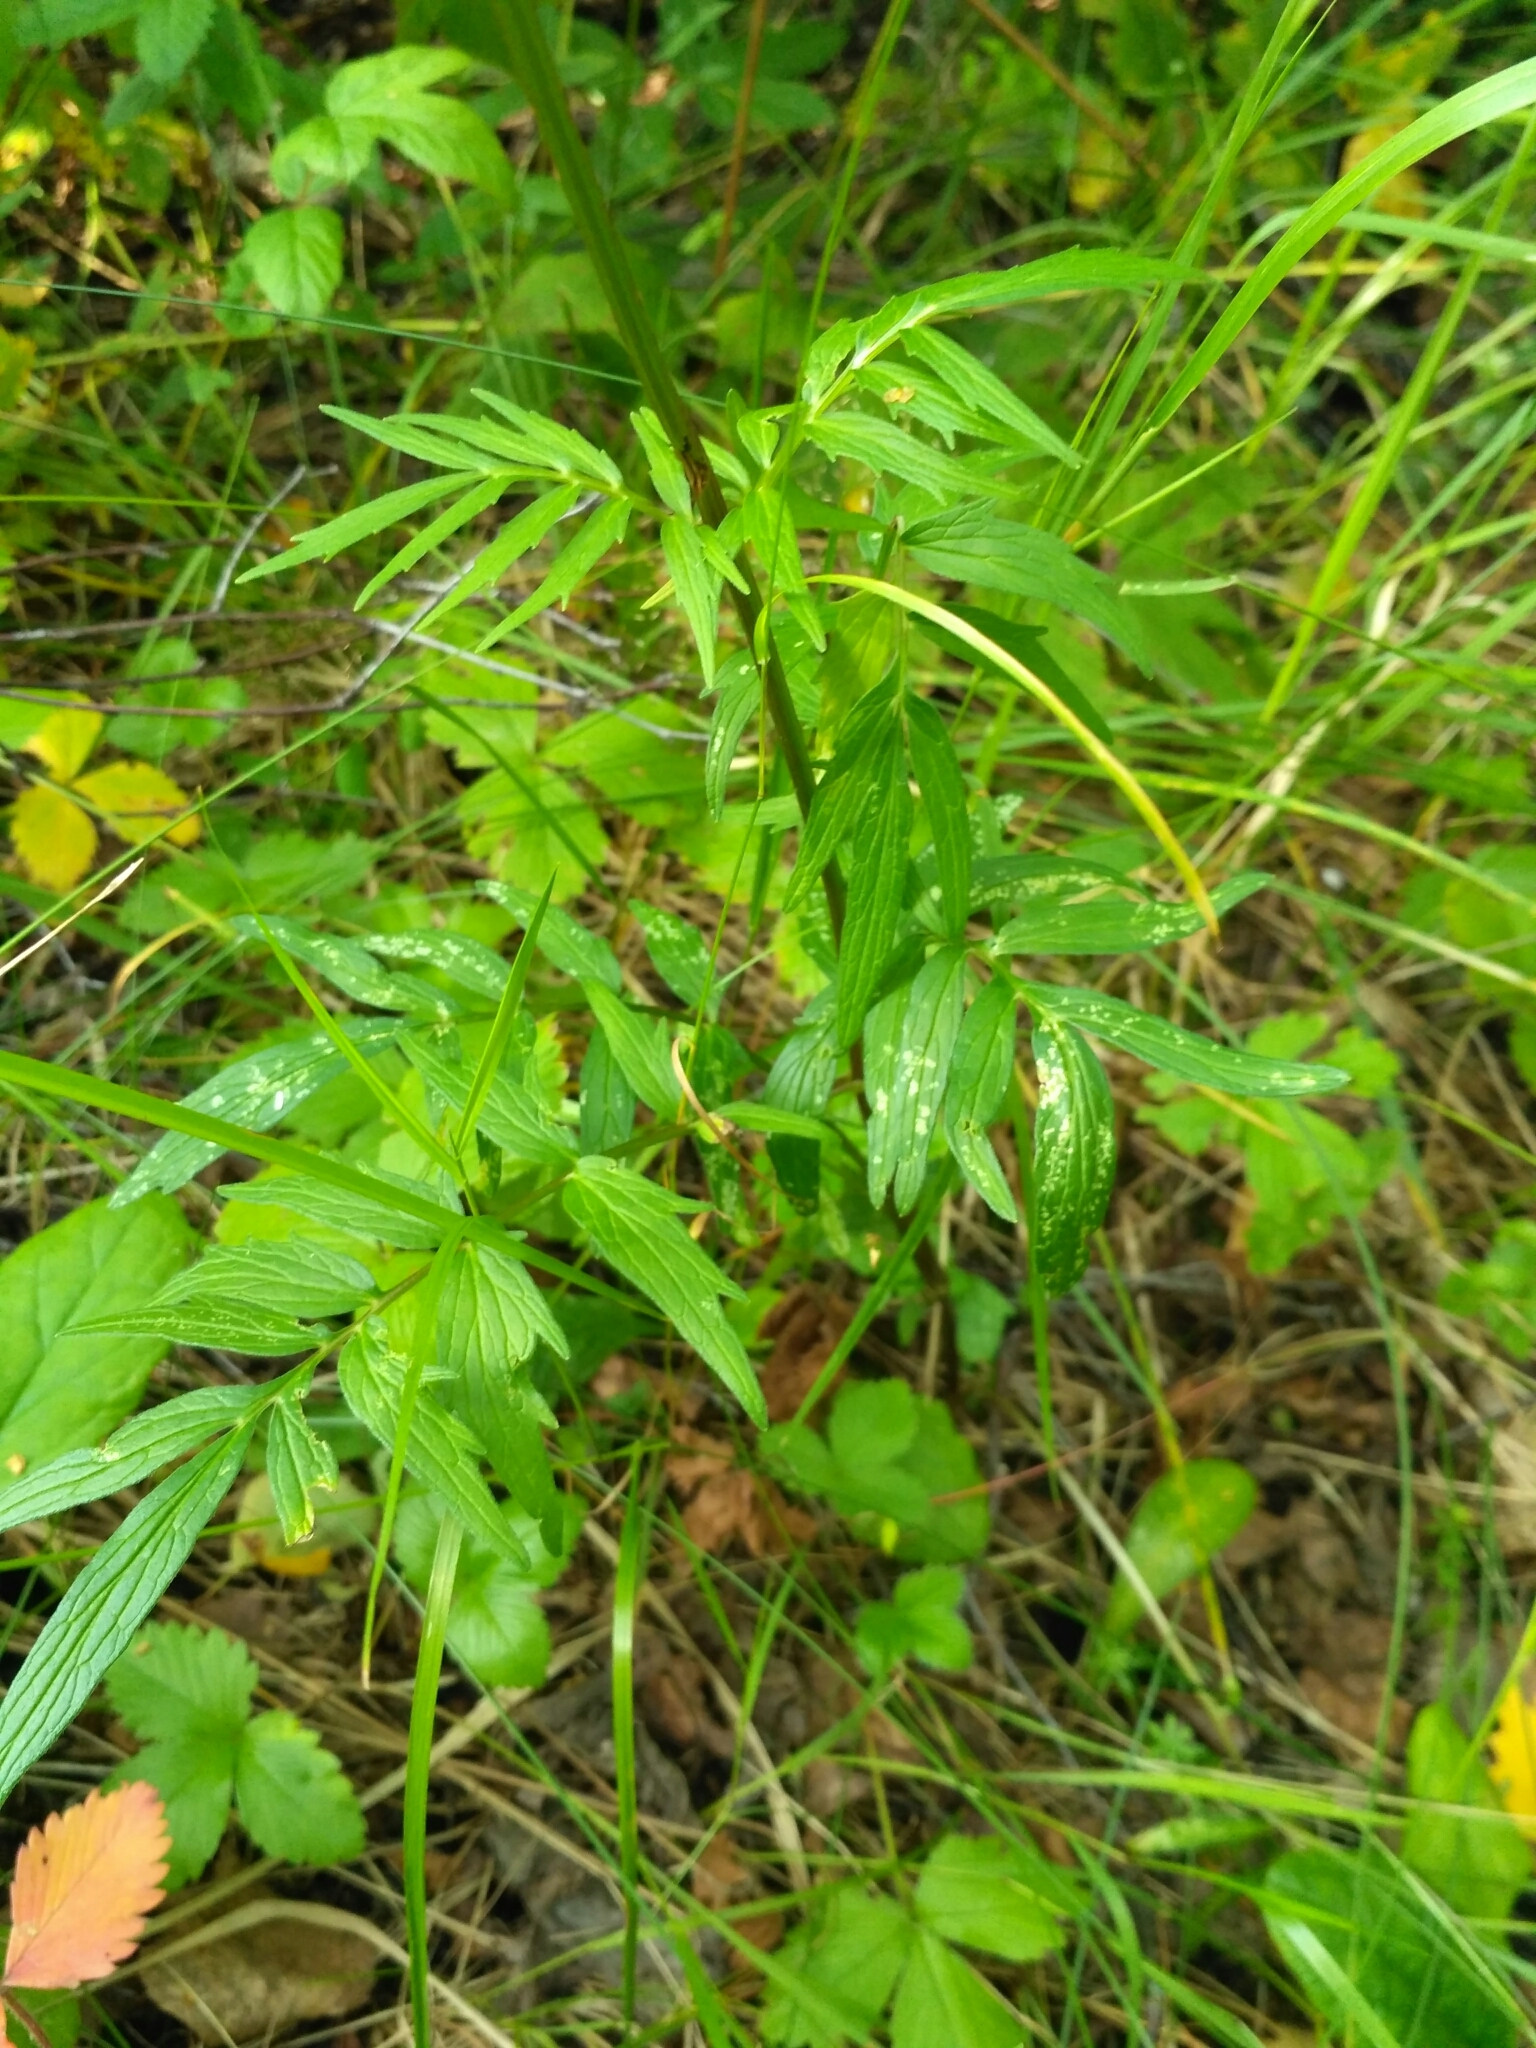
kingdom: Plantae
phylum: Tracheophyta
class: Magnoliopsida
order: Dipsacales
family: Caprifoliaceae
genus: Valeriana
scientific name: Valeriana officinalis
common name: Common valerian
